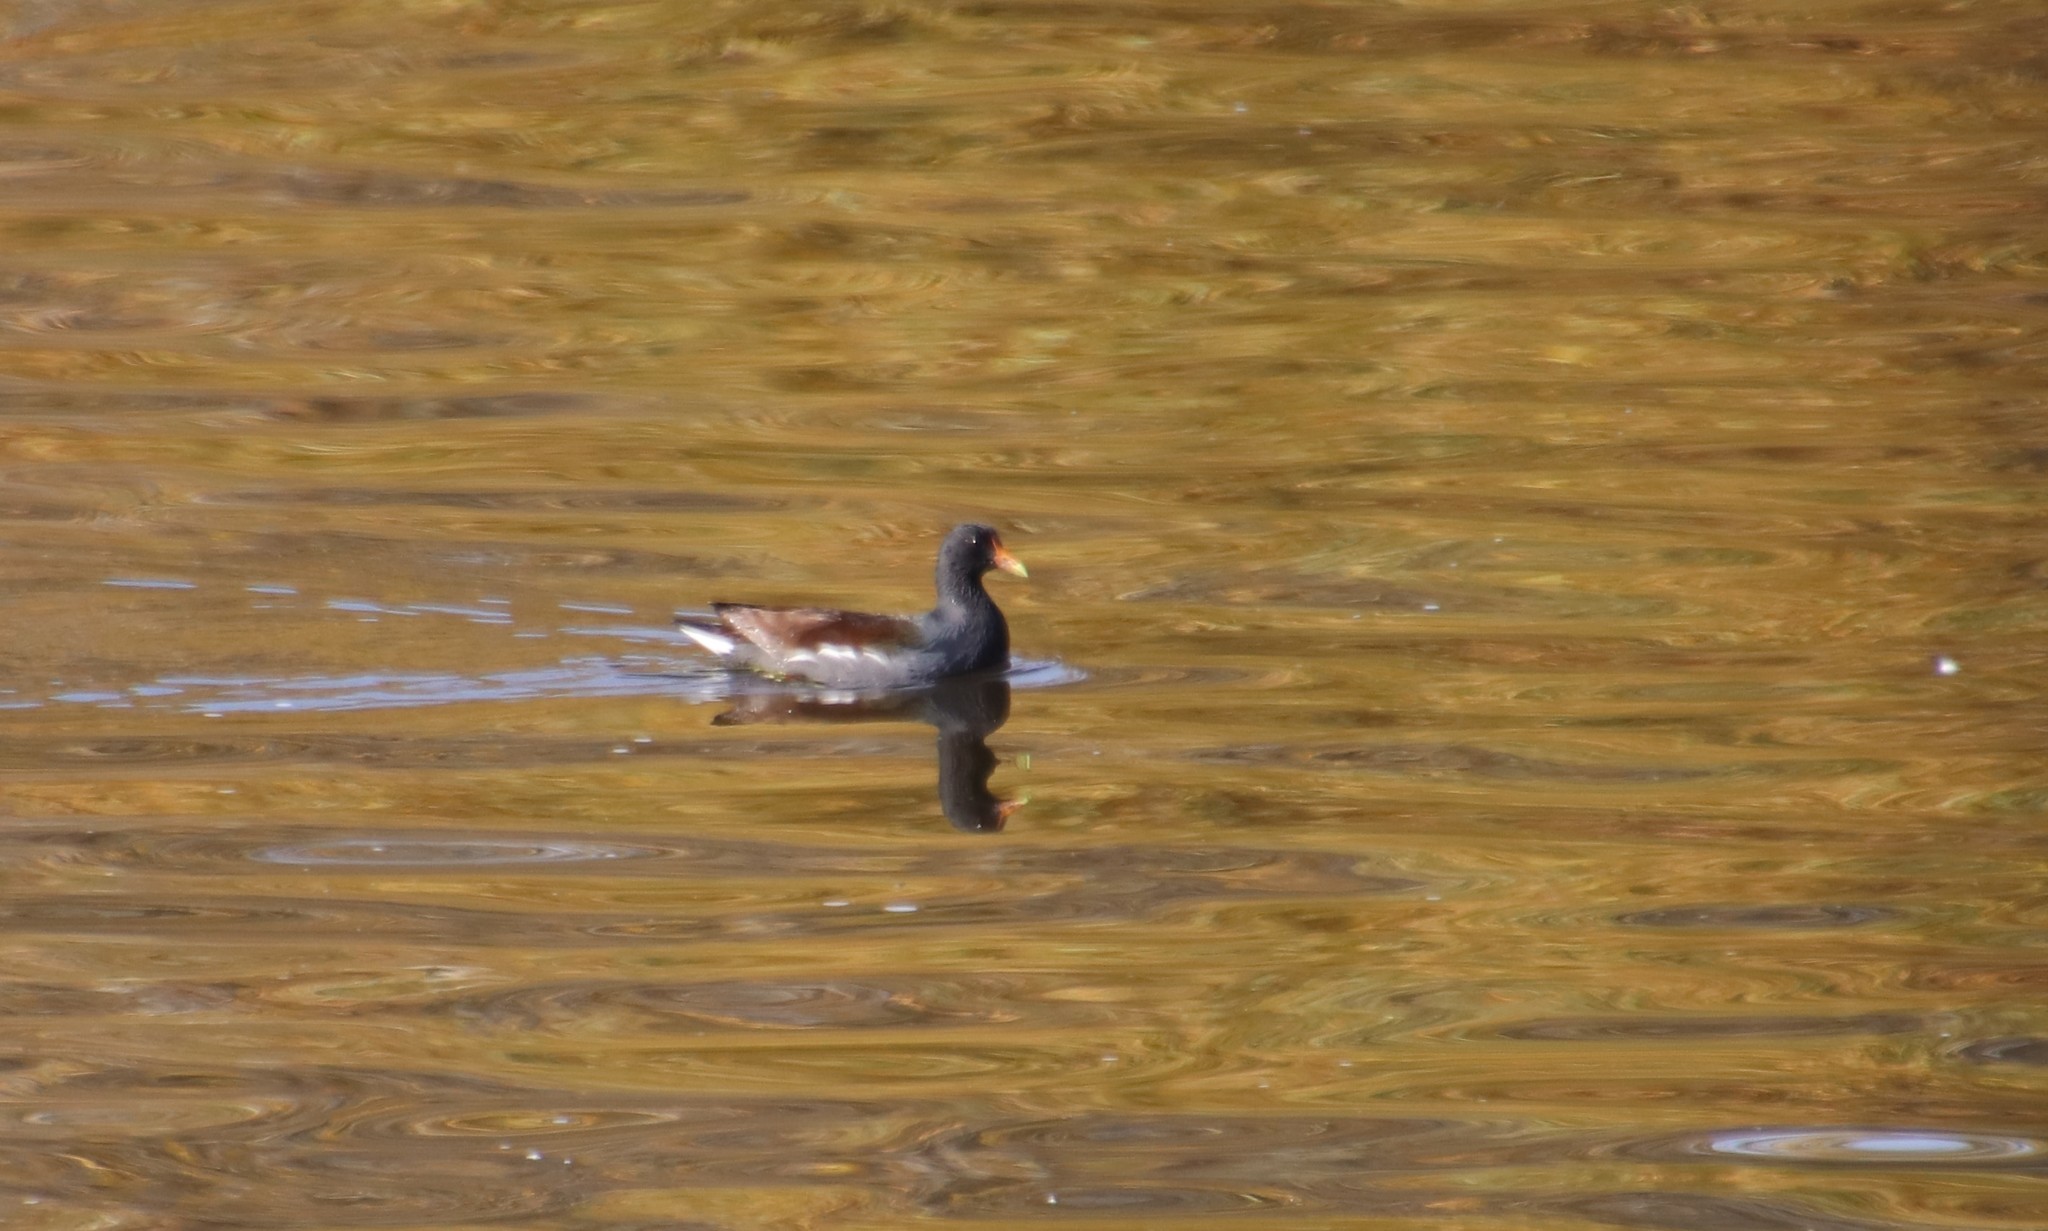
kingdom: Animalia
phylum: Chordata
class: Aves
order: Gruiformes
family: Rallidae
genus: Gallinula
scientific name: Gallinula chloropus
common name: Common moorhen
